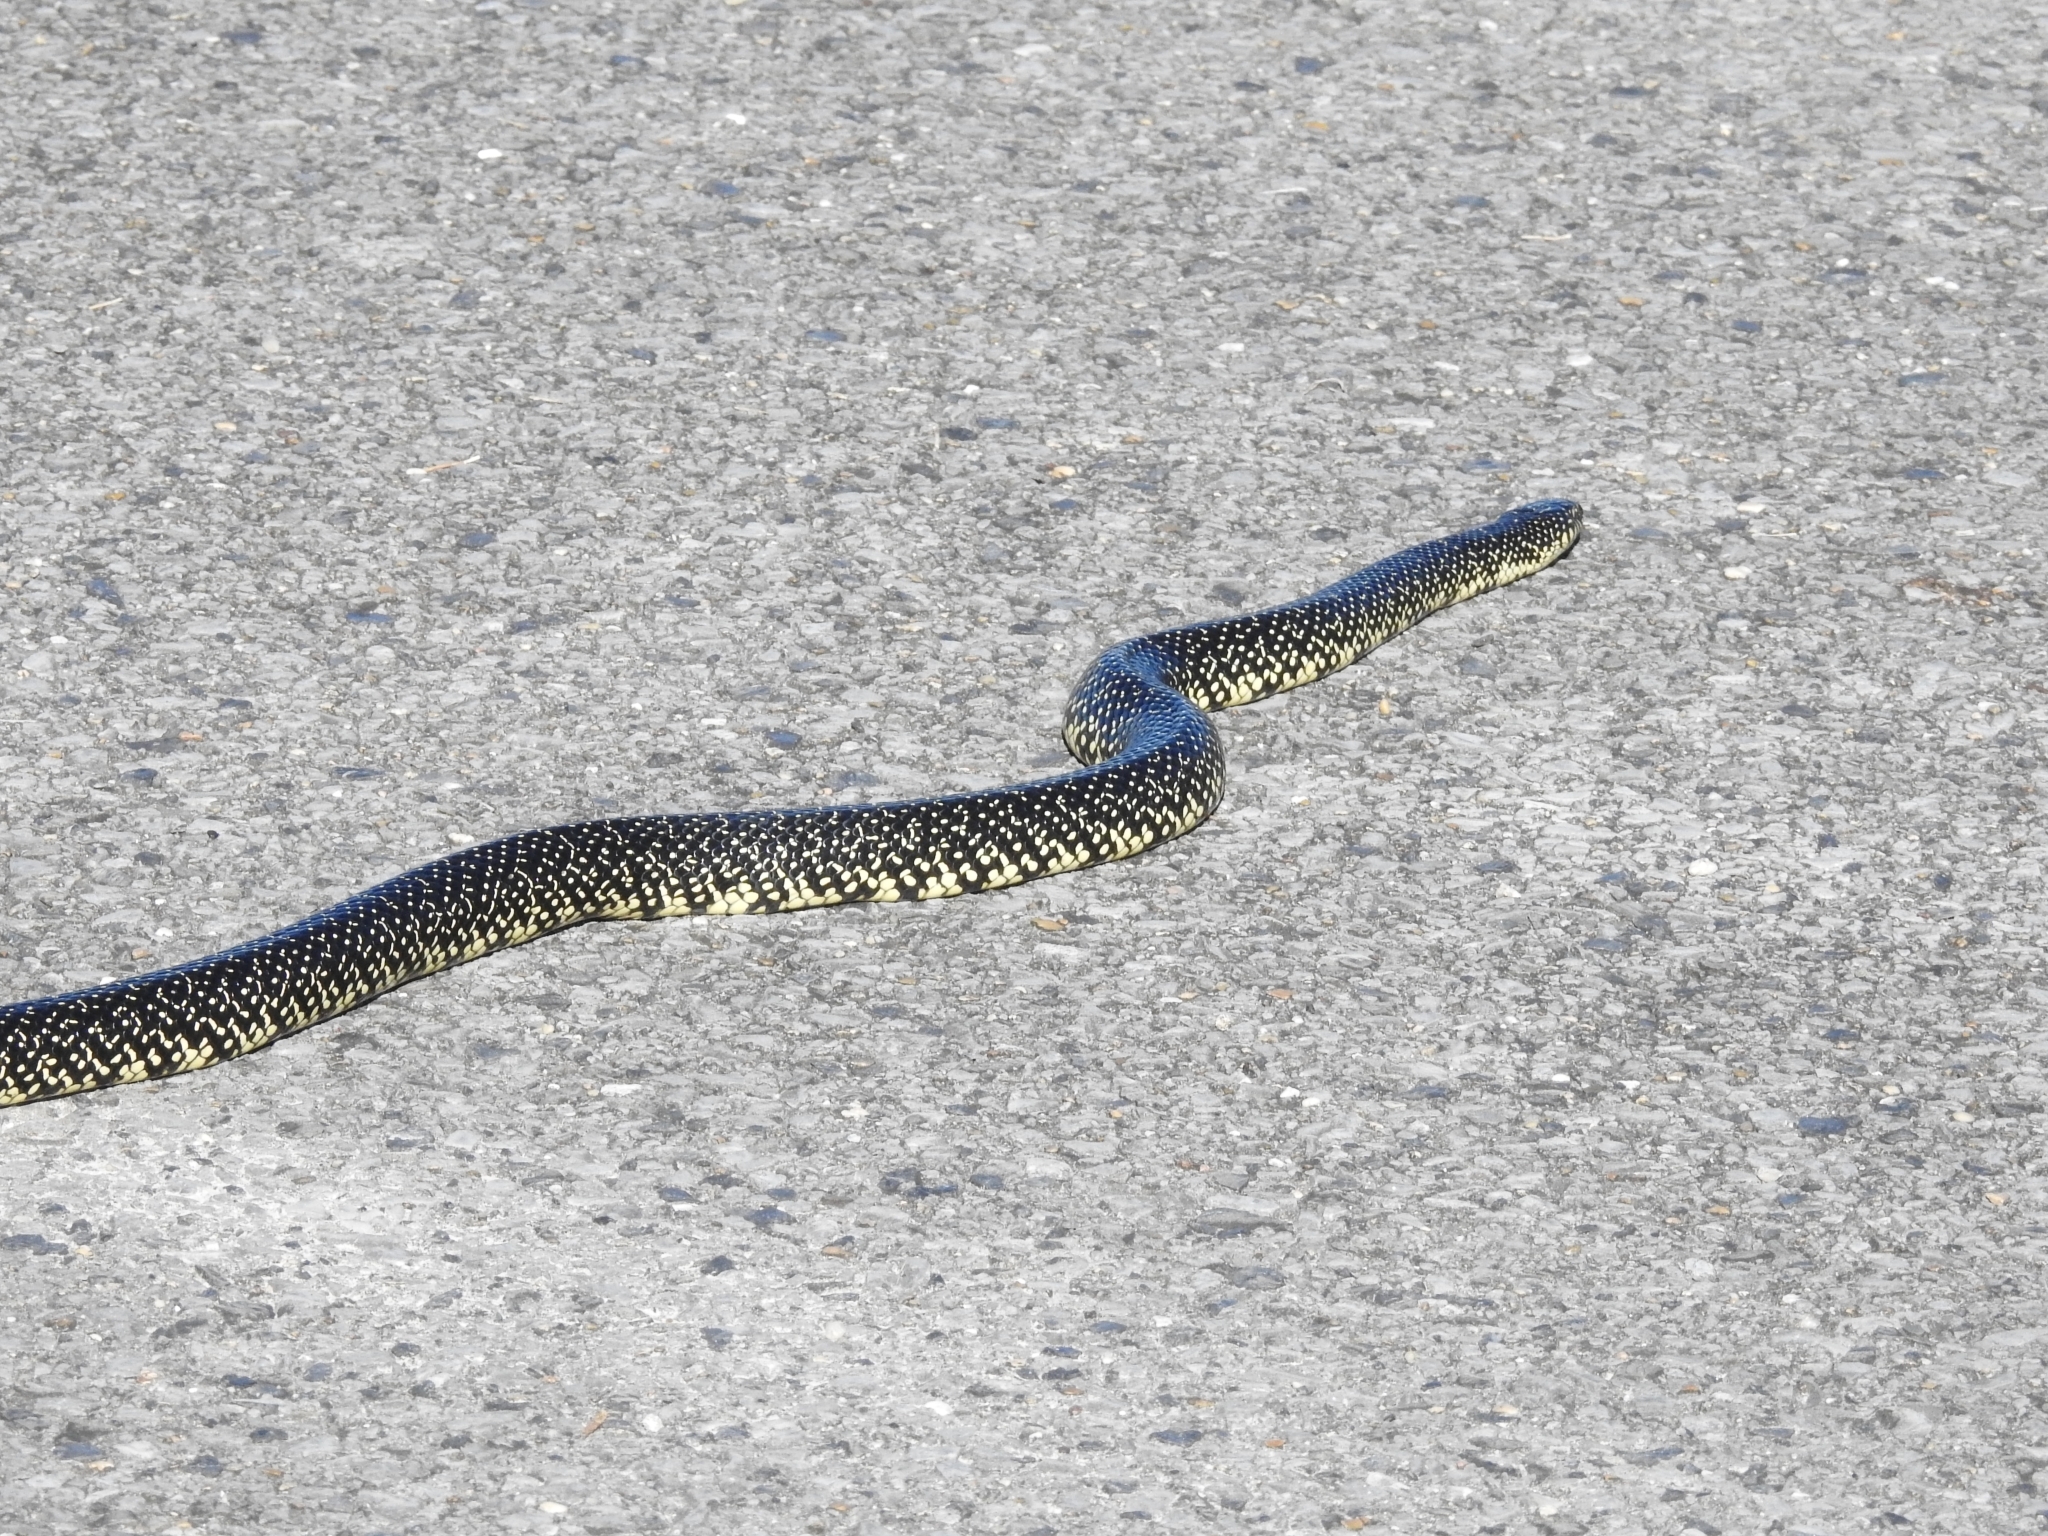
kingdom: Animalia
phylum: Chordata
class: Squamata
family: Colubridae
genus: Lampropeltis
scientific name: Lampropeltis holbrooki
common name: Speckled kingsnake
